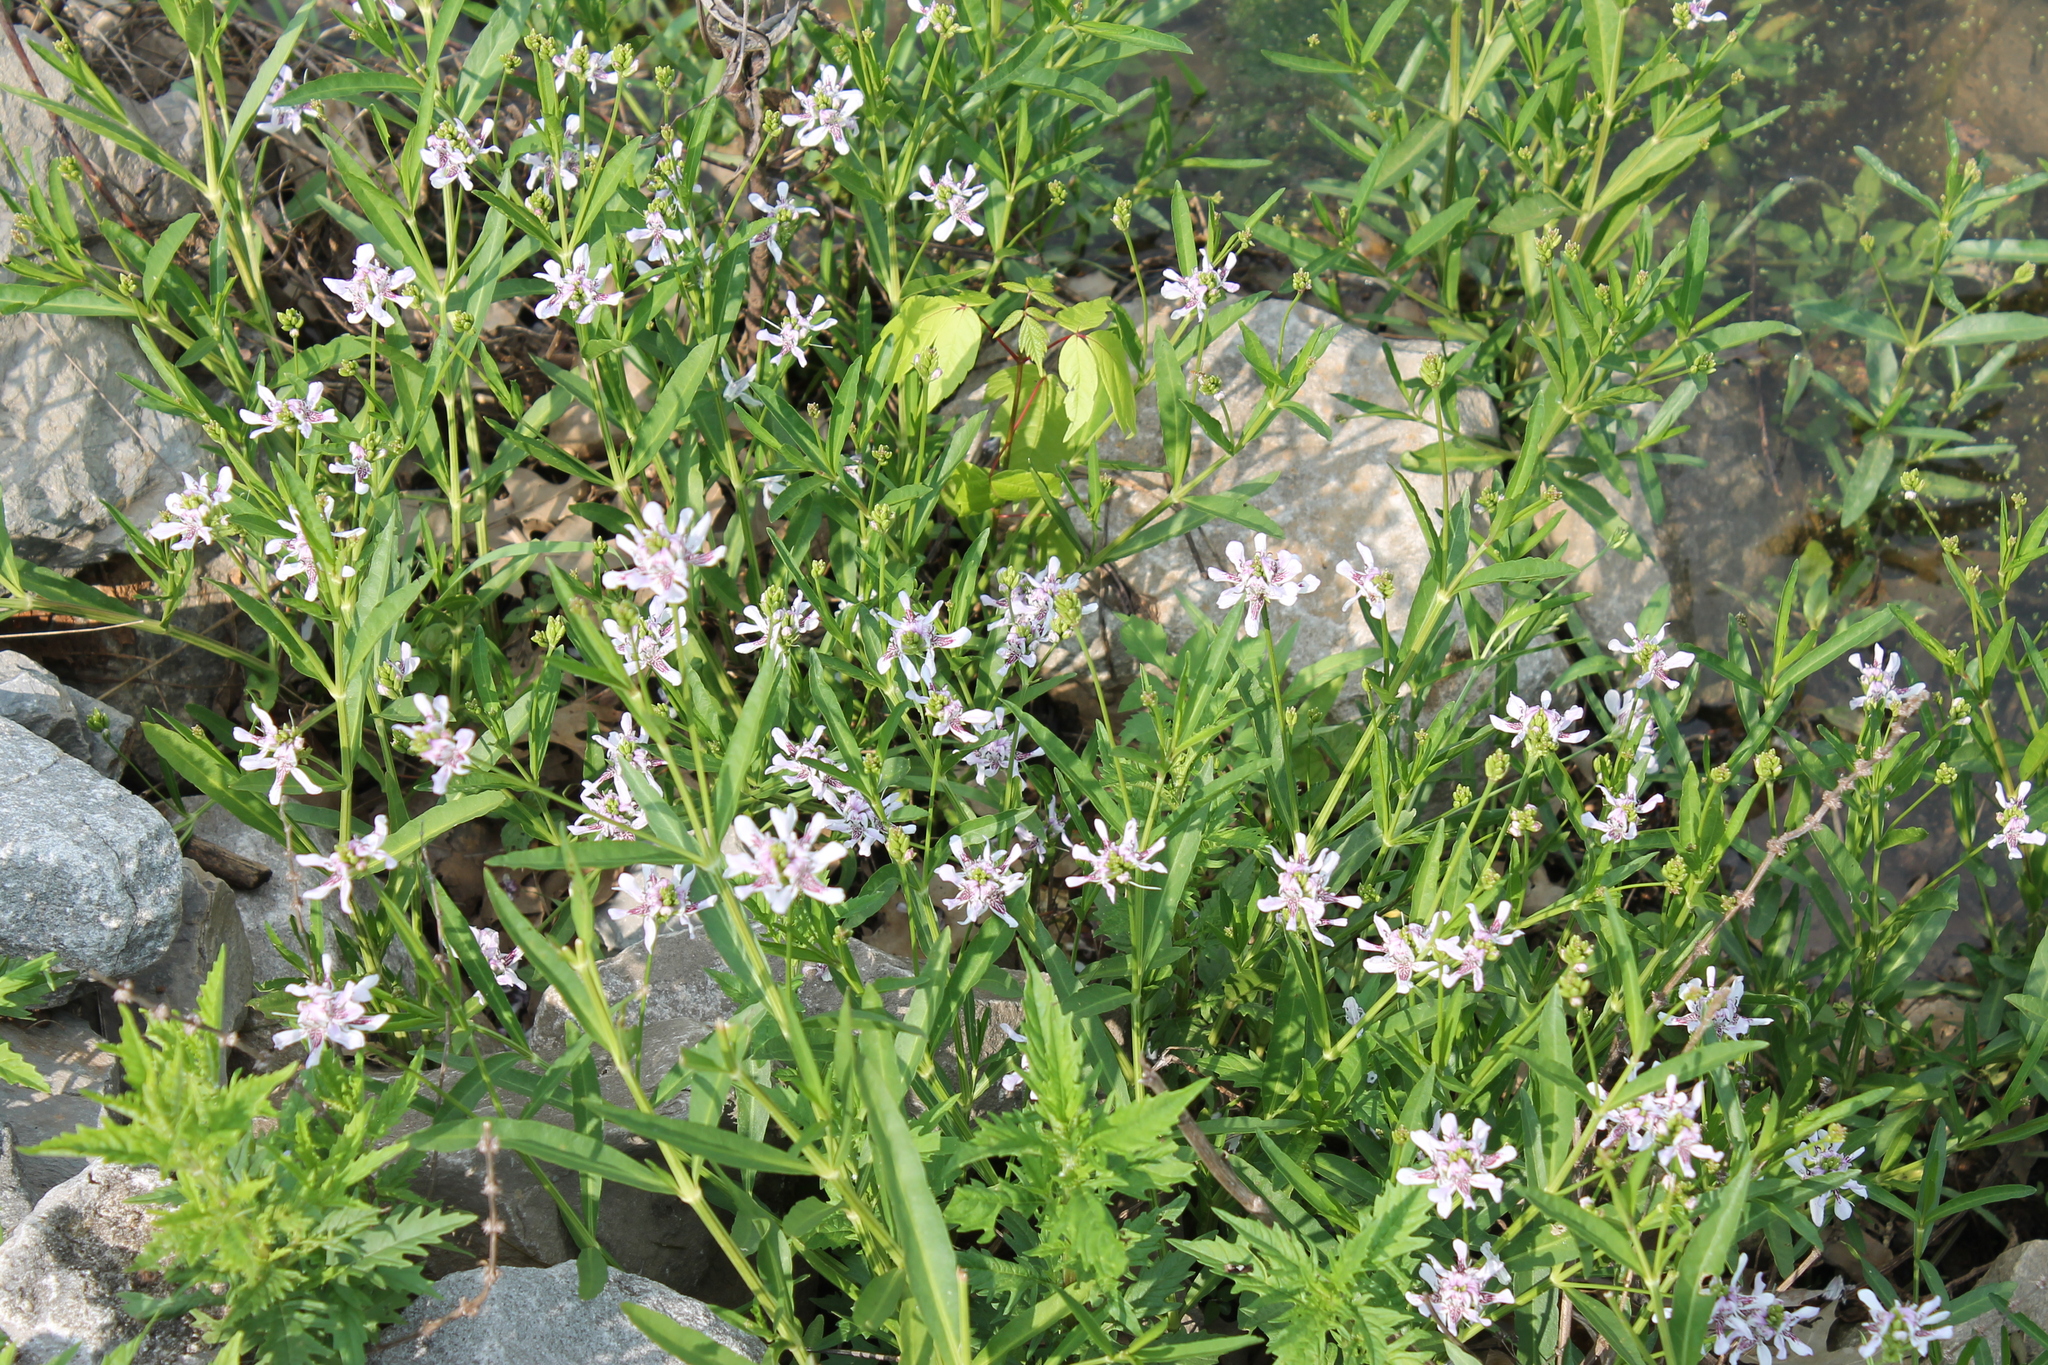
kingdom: Plantae
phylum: Tracheophyta
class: Magnoliopsida
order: Lamiales
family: Acanthaceae
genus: Dianthera
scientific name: Dianthera americana
